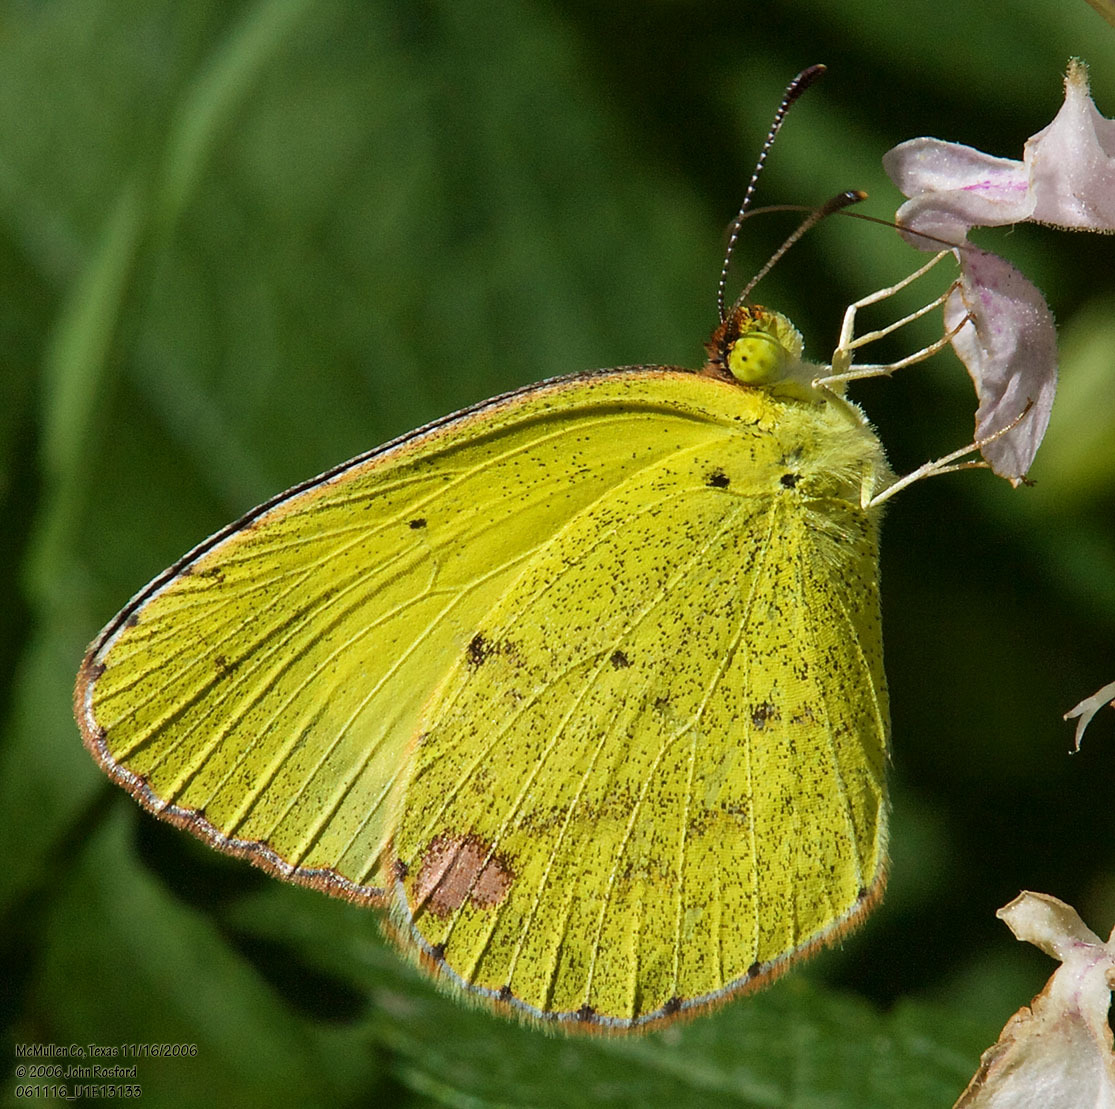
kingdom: Animalia
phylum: Arthropoda
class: Insecta
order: Lepidoptera
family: Pieridae
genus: Pyrisitia
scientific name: Pyrisitia lisa
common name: Little yellow
